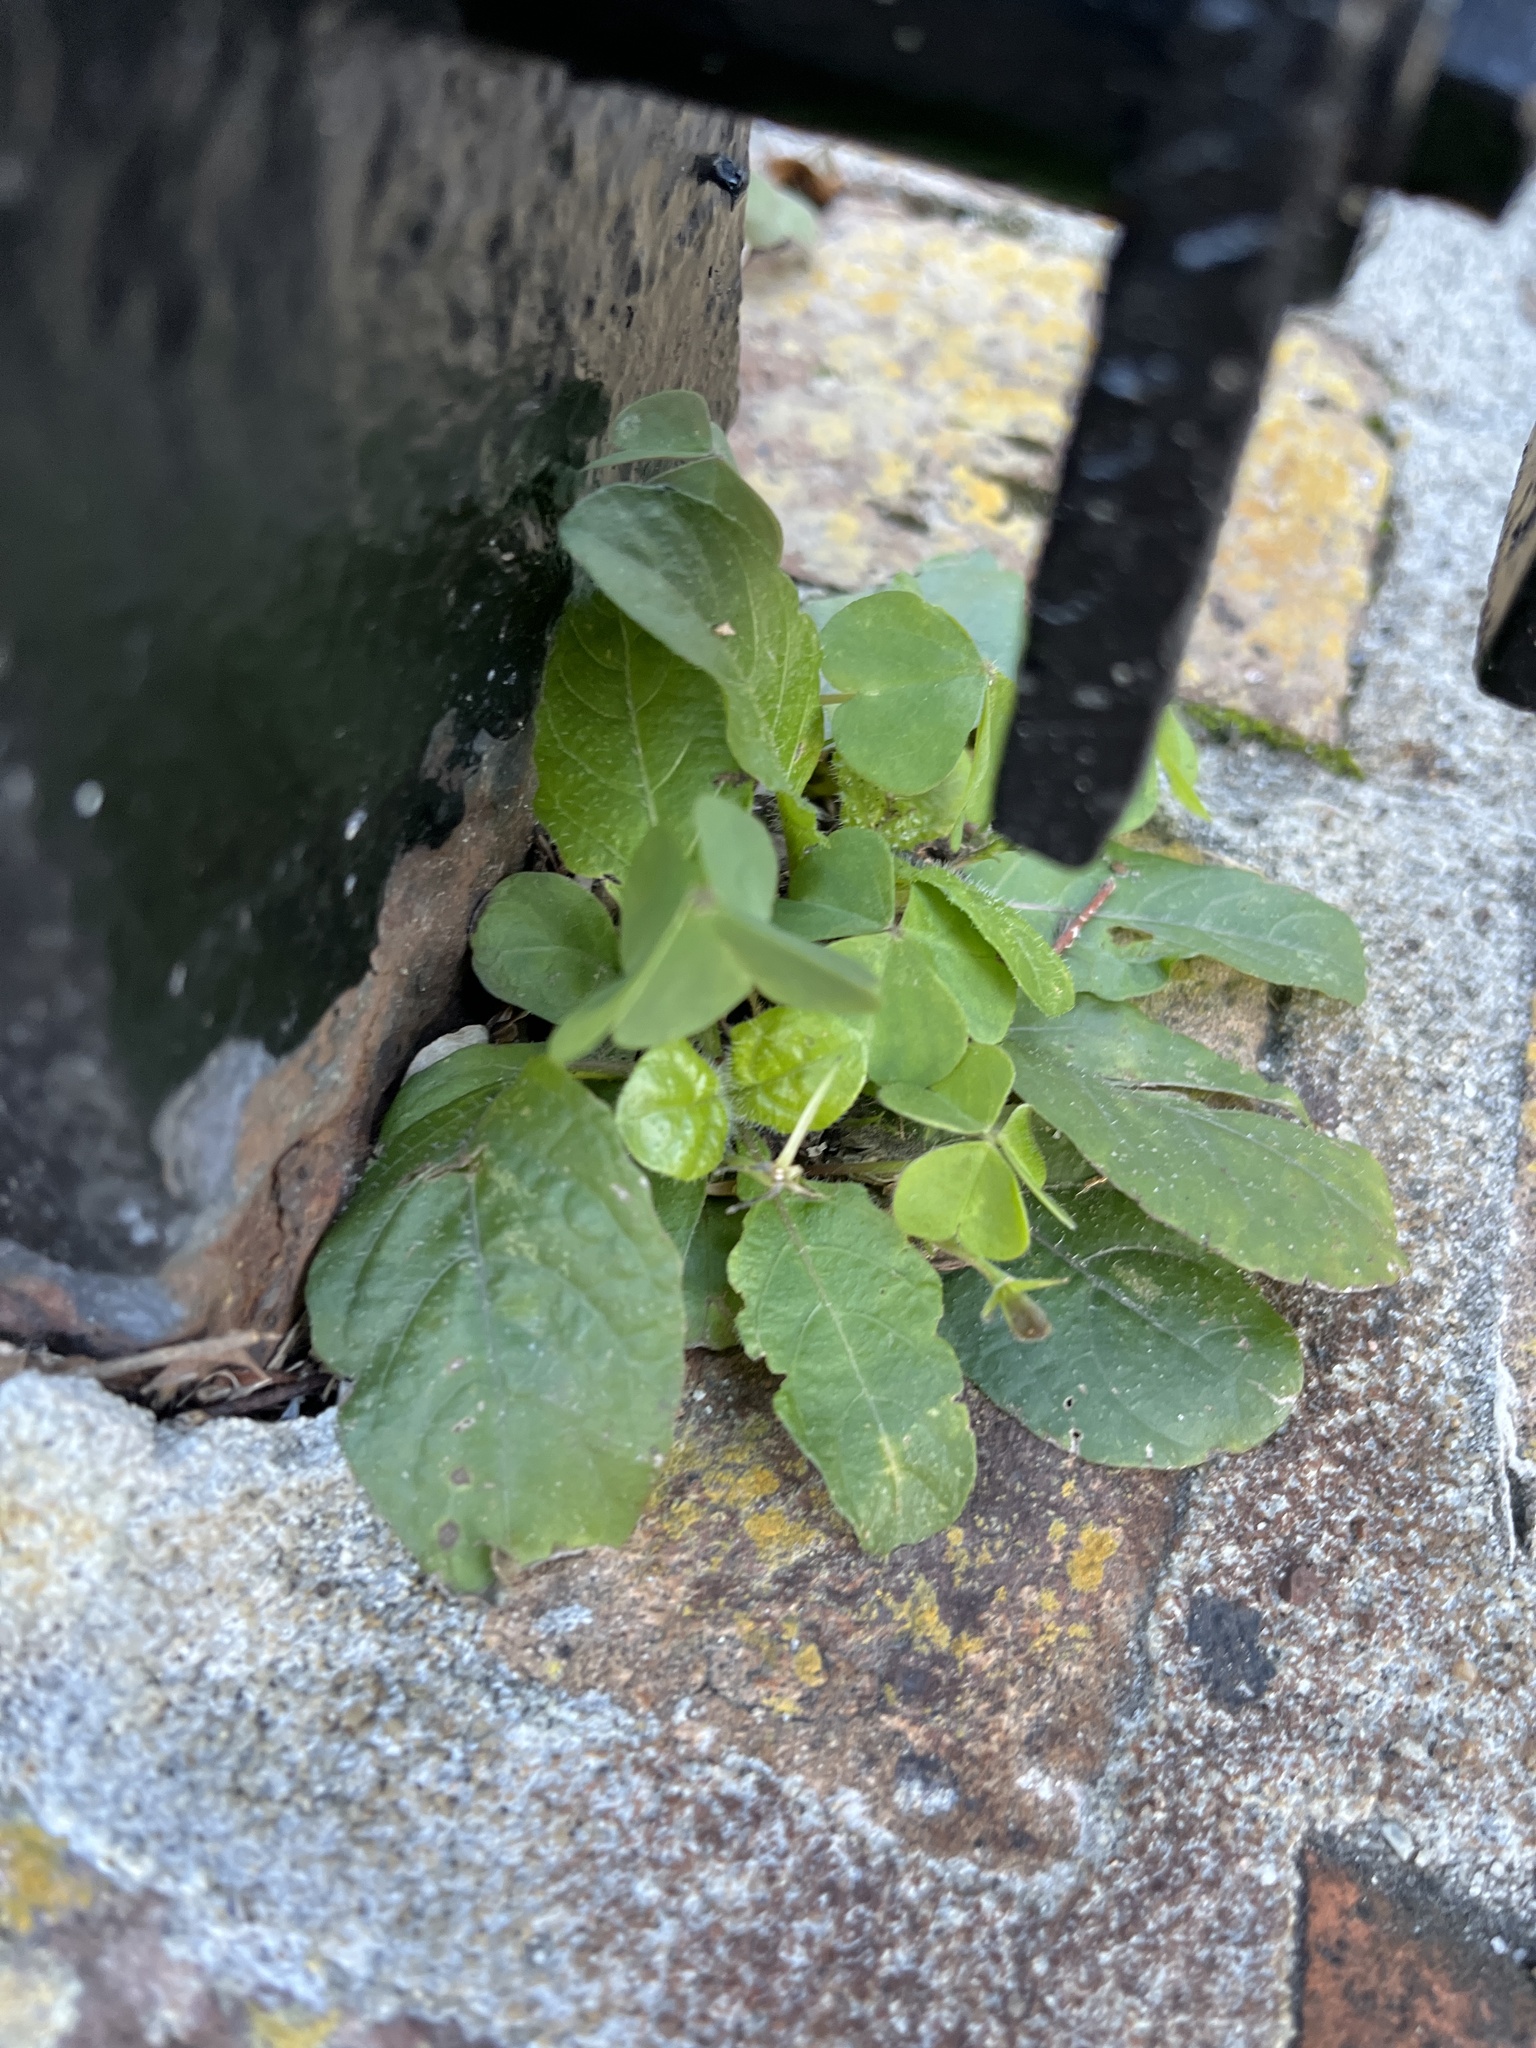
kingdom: Plantae
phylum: Tracheophyta
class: Magnoliopsida
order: Asterales
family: Asteraceae
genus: Youngia
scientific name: Youngia japonica
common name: Oriental false hawksbeard
